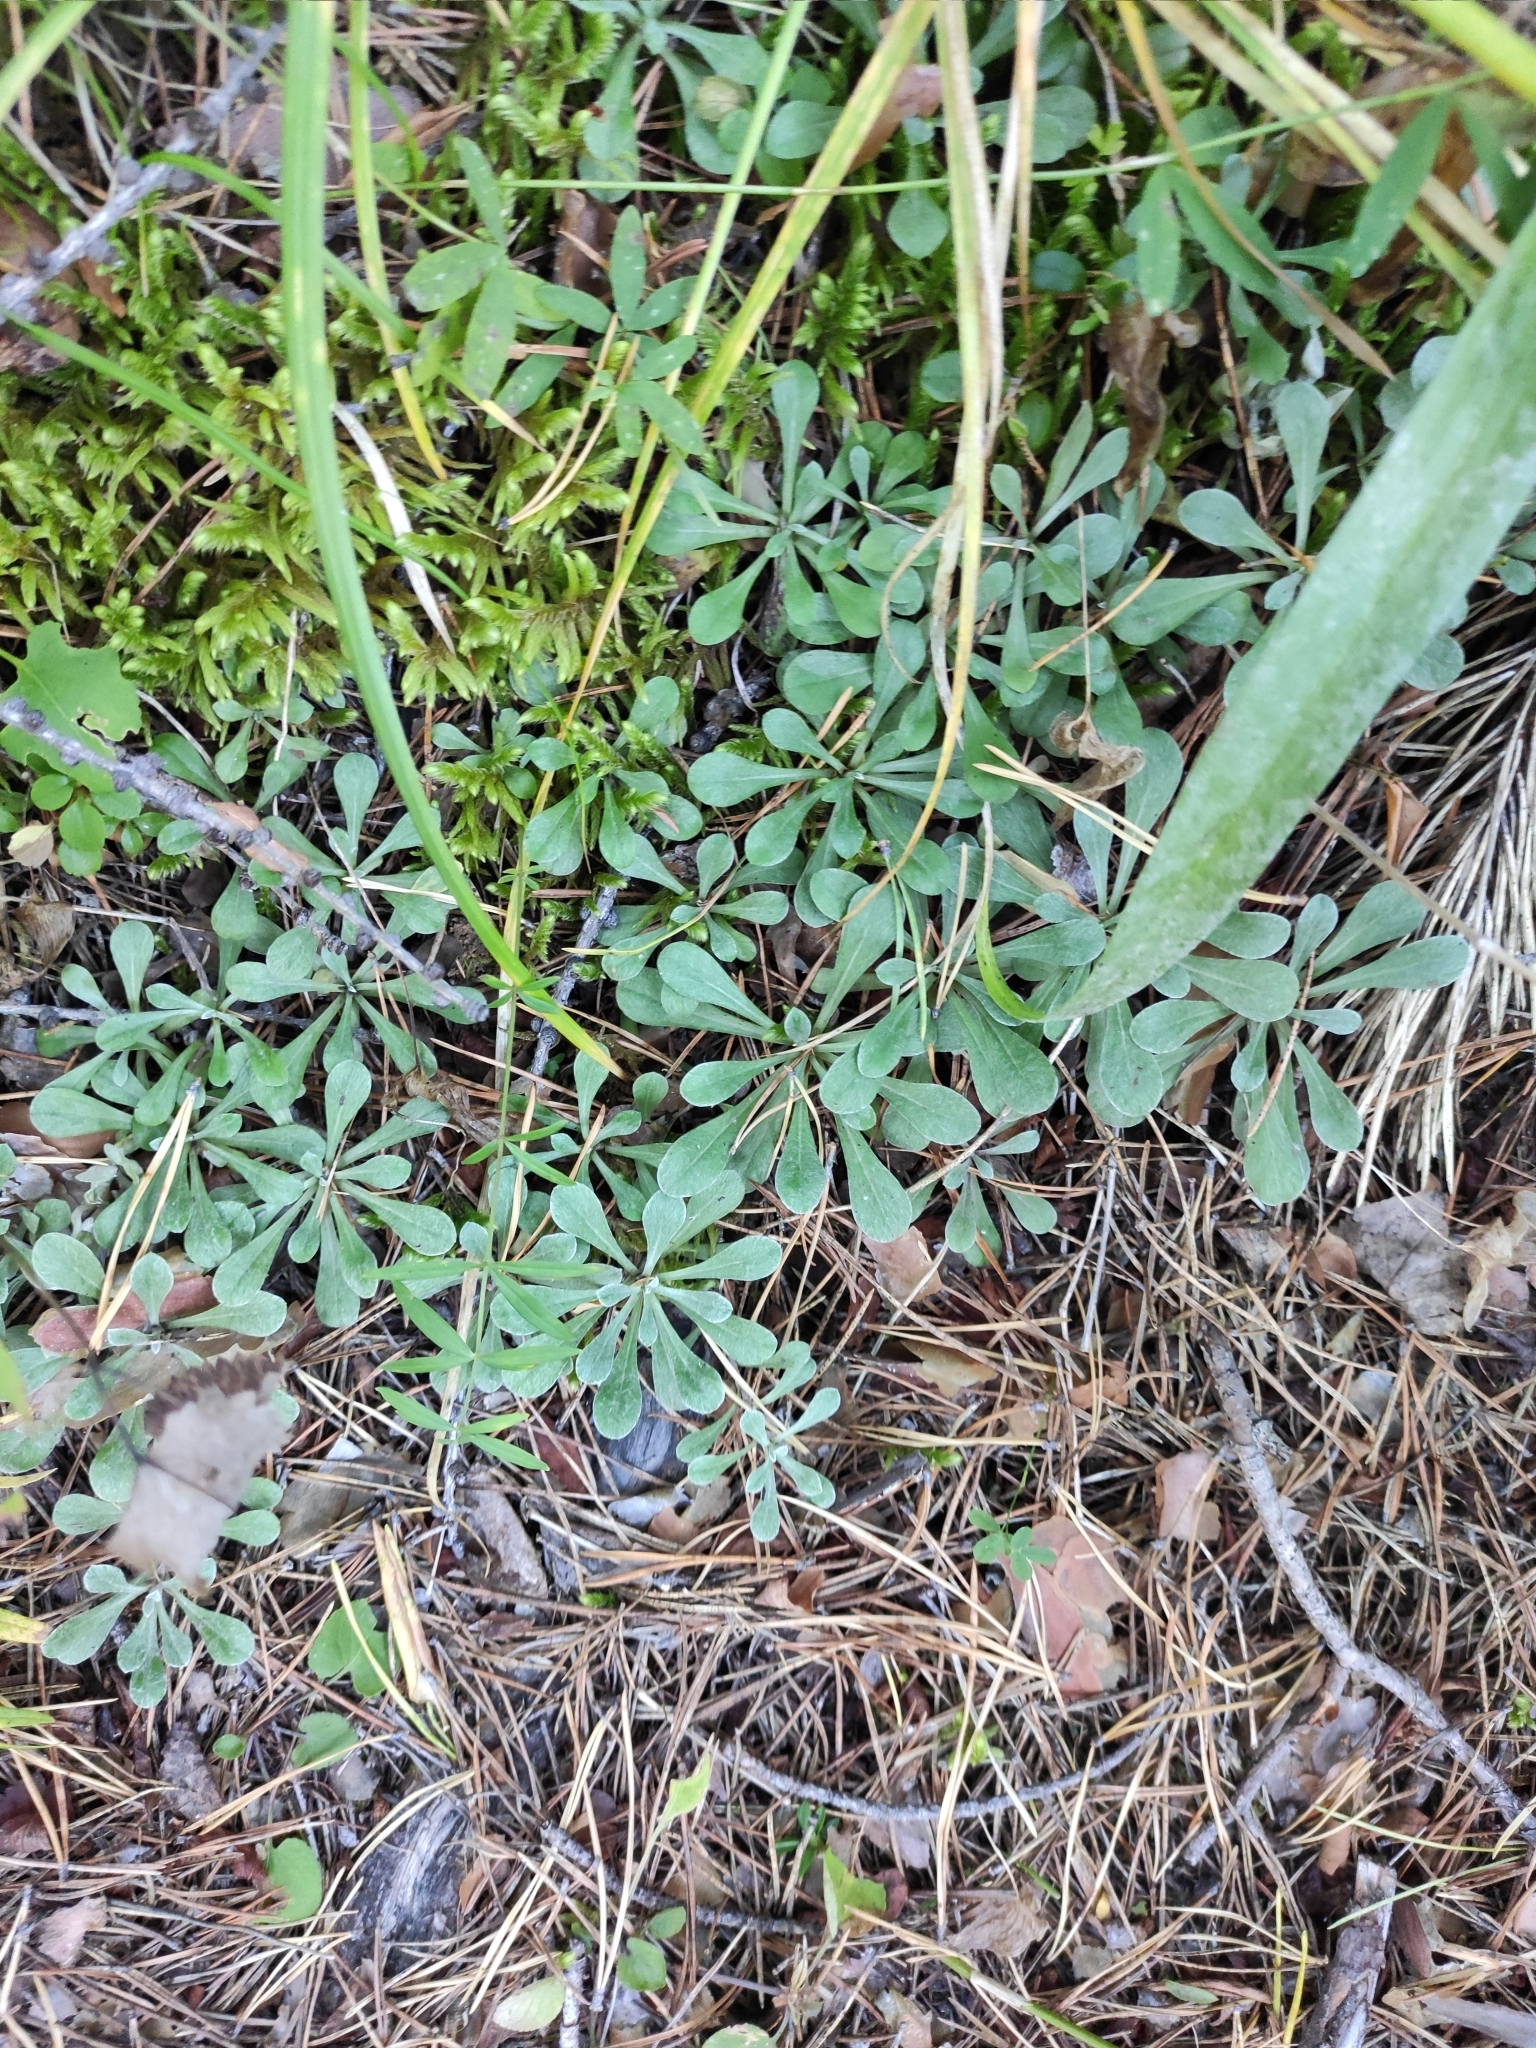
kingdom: Plantae
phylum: Tracheophyta
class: Magnoliopsida
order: Asterales
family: Asteraceae
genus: Antennaria
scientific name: Antennaria dioica
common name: Mountain everlasting
